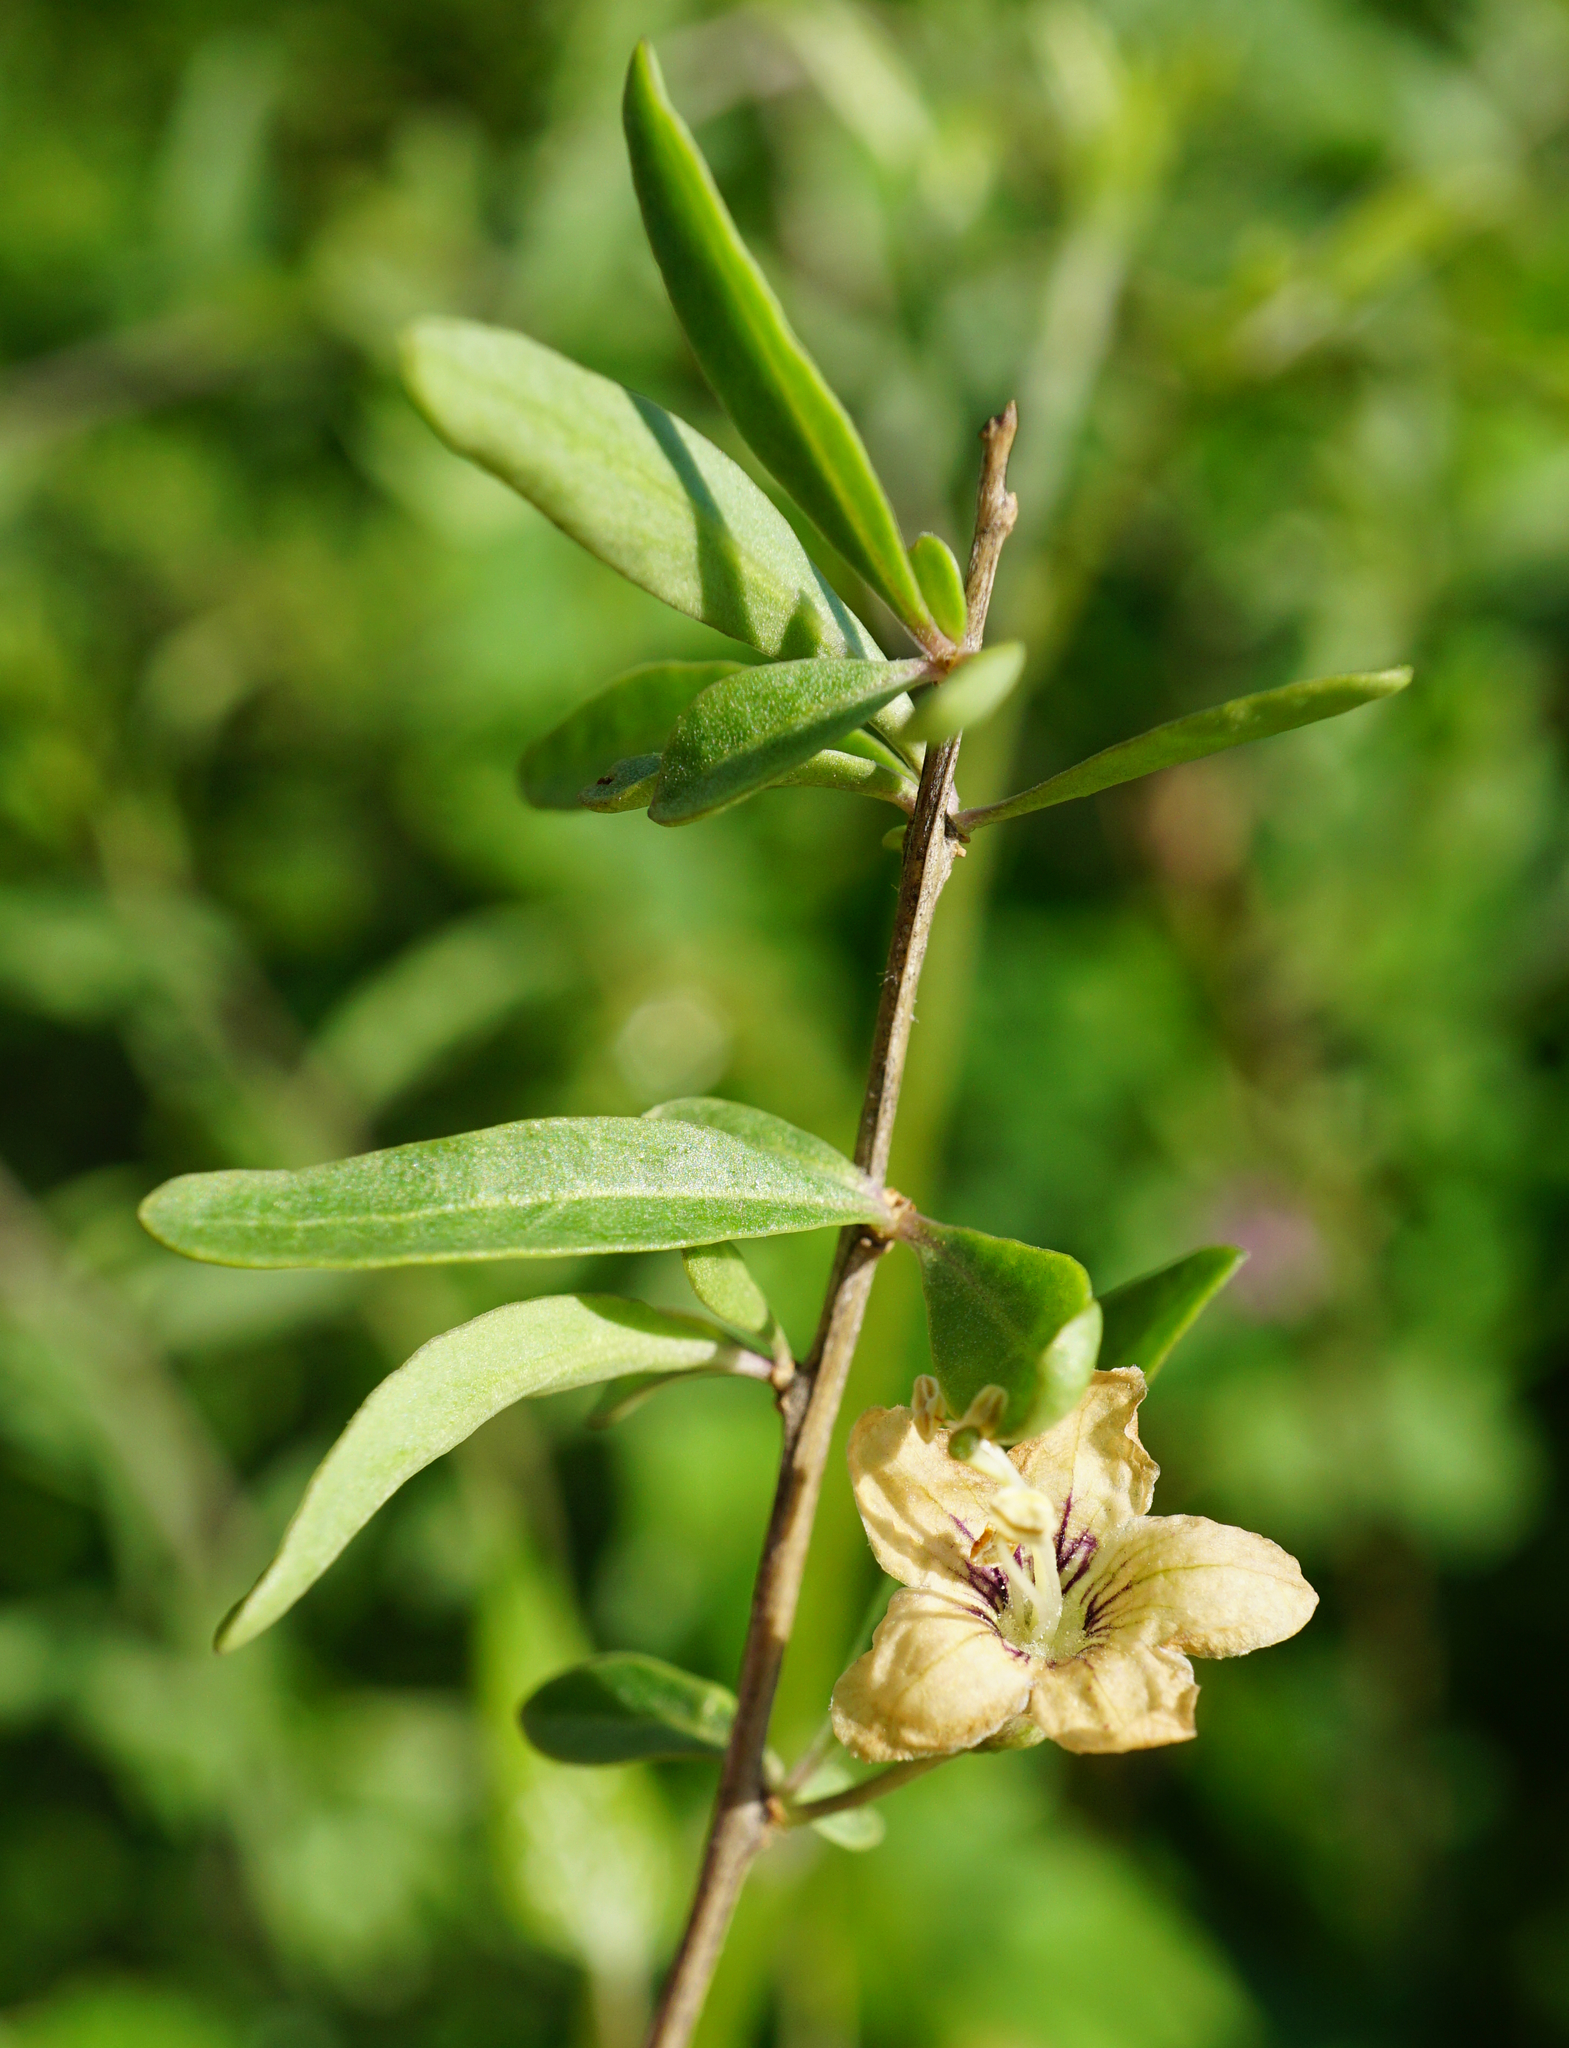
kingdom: Plantae
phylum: Tracheophyta
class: Magnoliopsida
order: Solanales
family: Solanaceae
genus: Lycium
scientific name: Lycium barbarum
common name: Duke of argyll's teaplant
